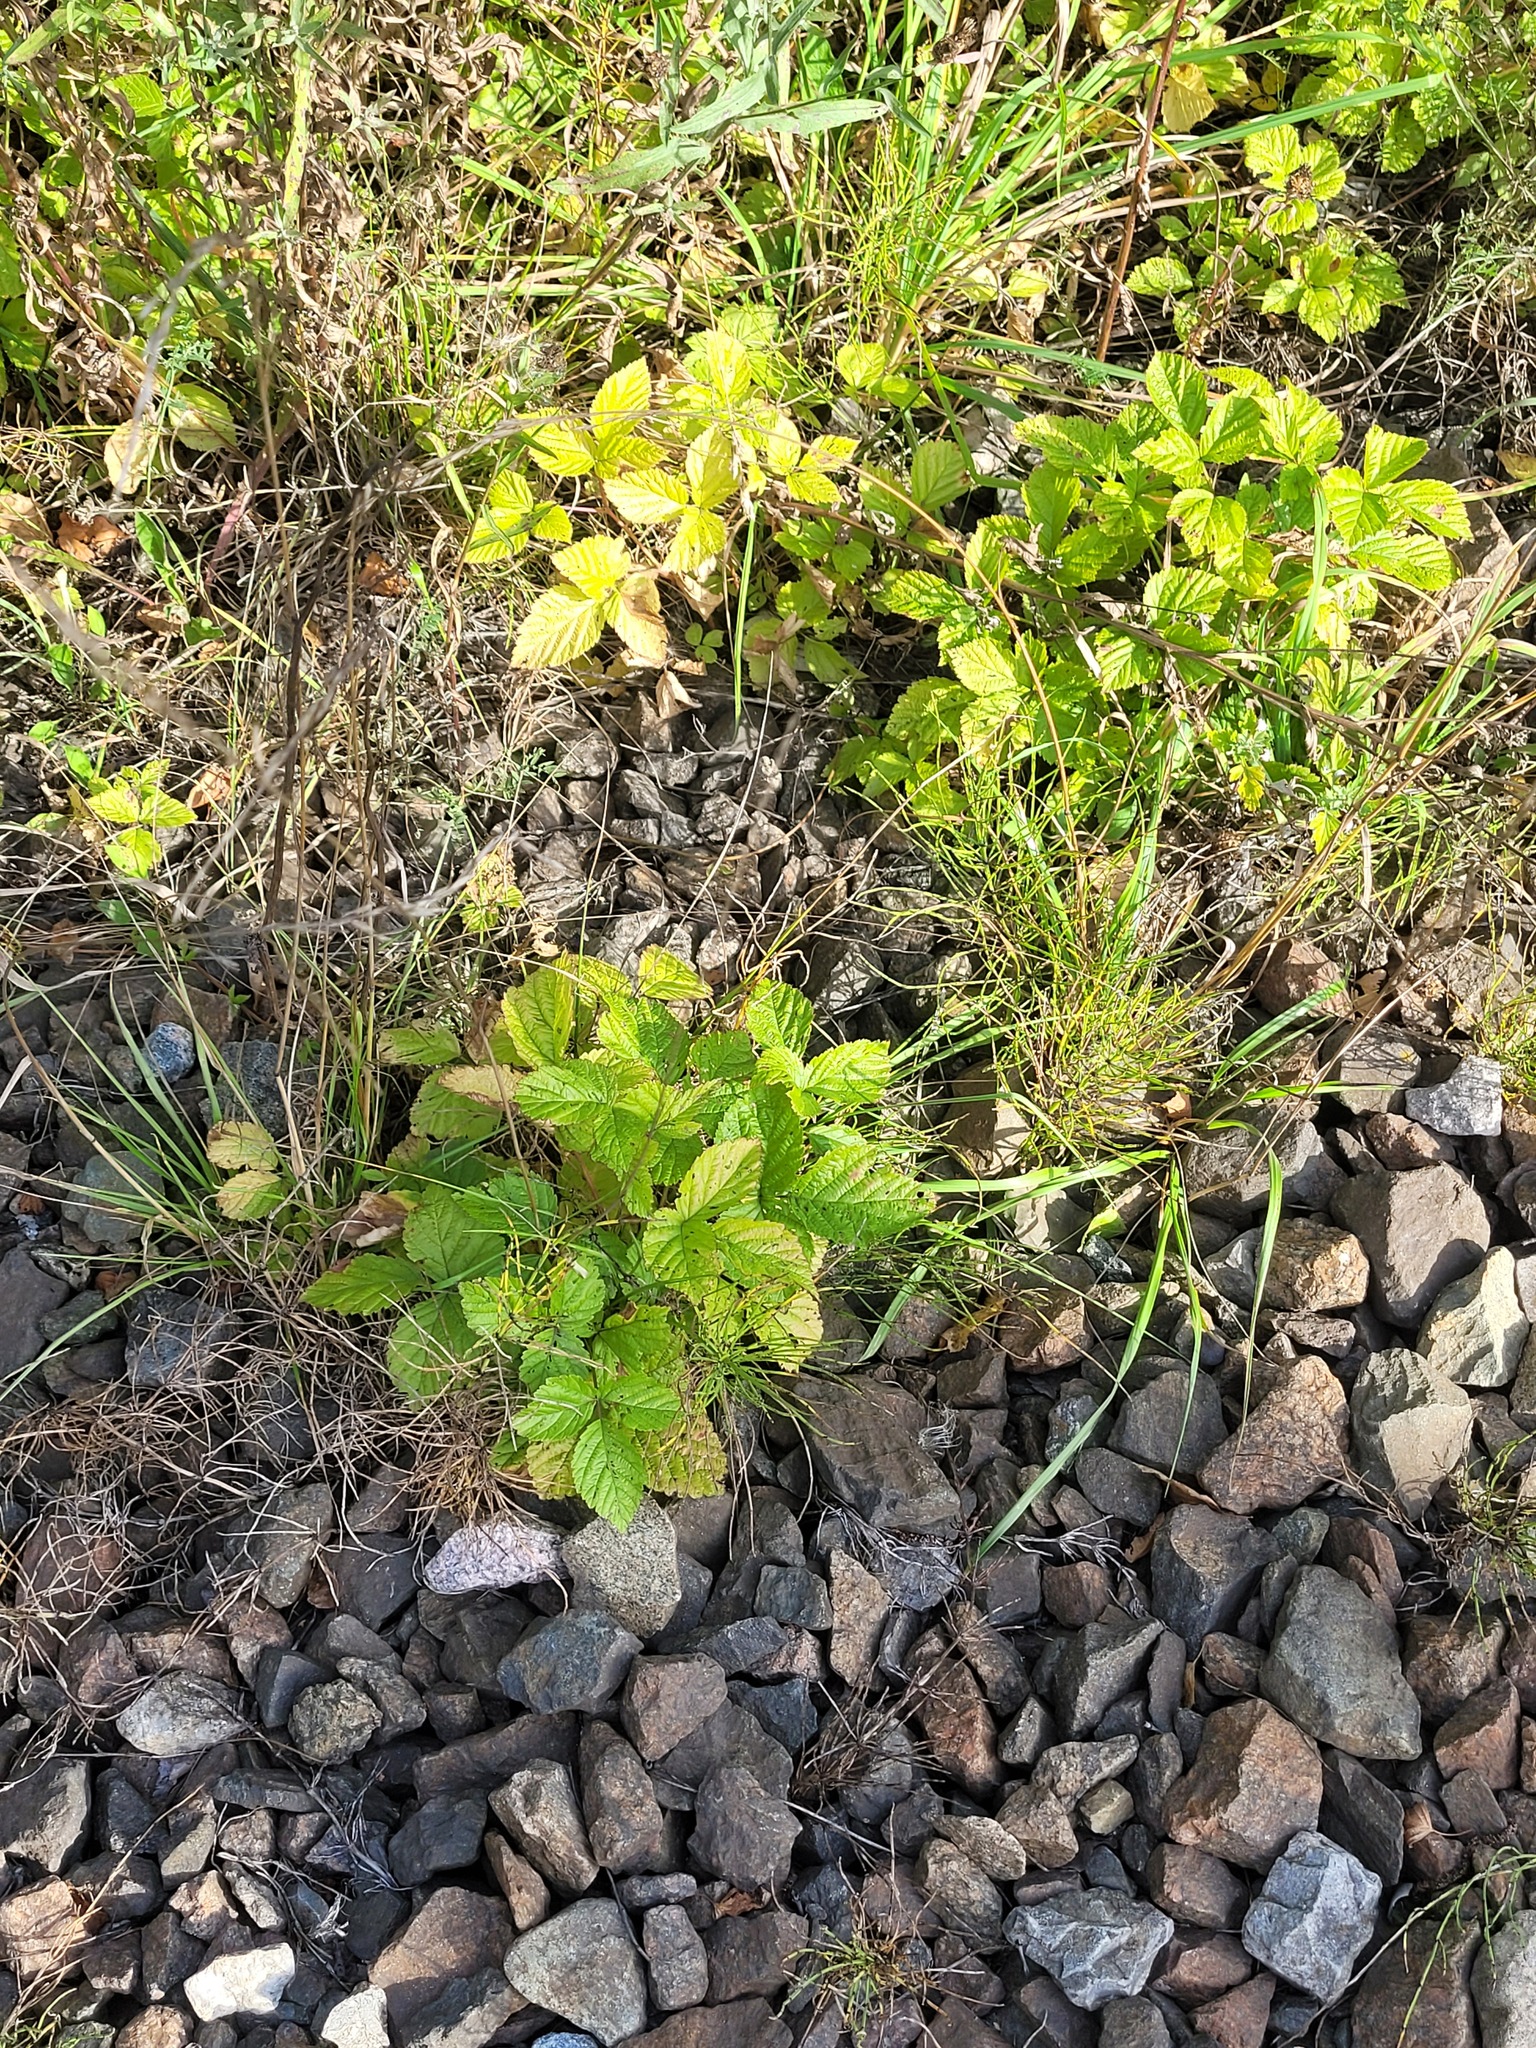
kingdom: Plantae
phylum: Tracheophyta
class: Magnoliopsida
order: Rosales
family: Rosaceae
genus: Rubus
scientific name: Rubus saxatilis
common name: Stone bramble
